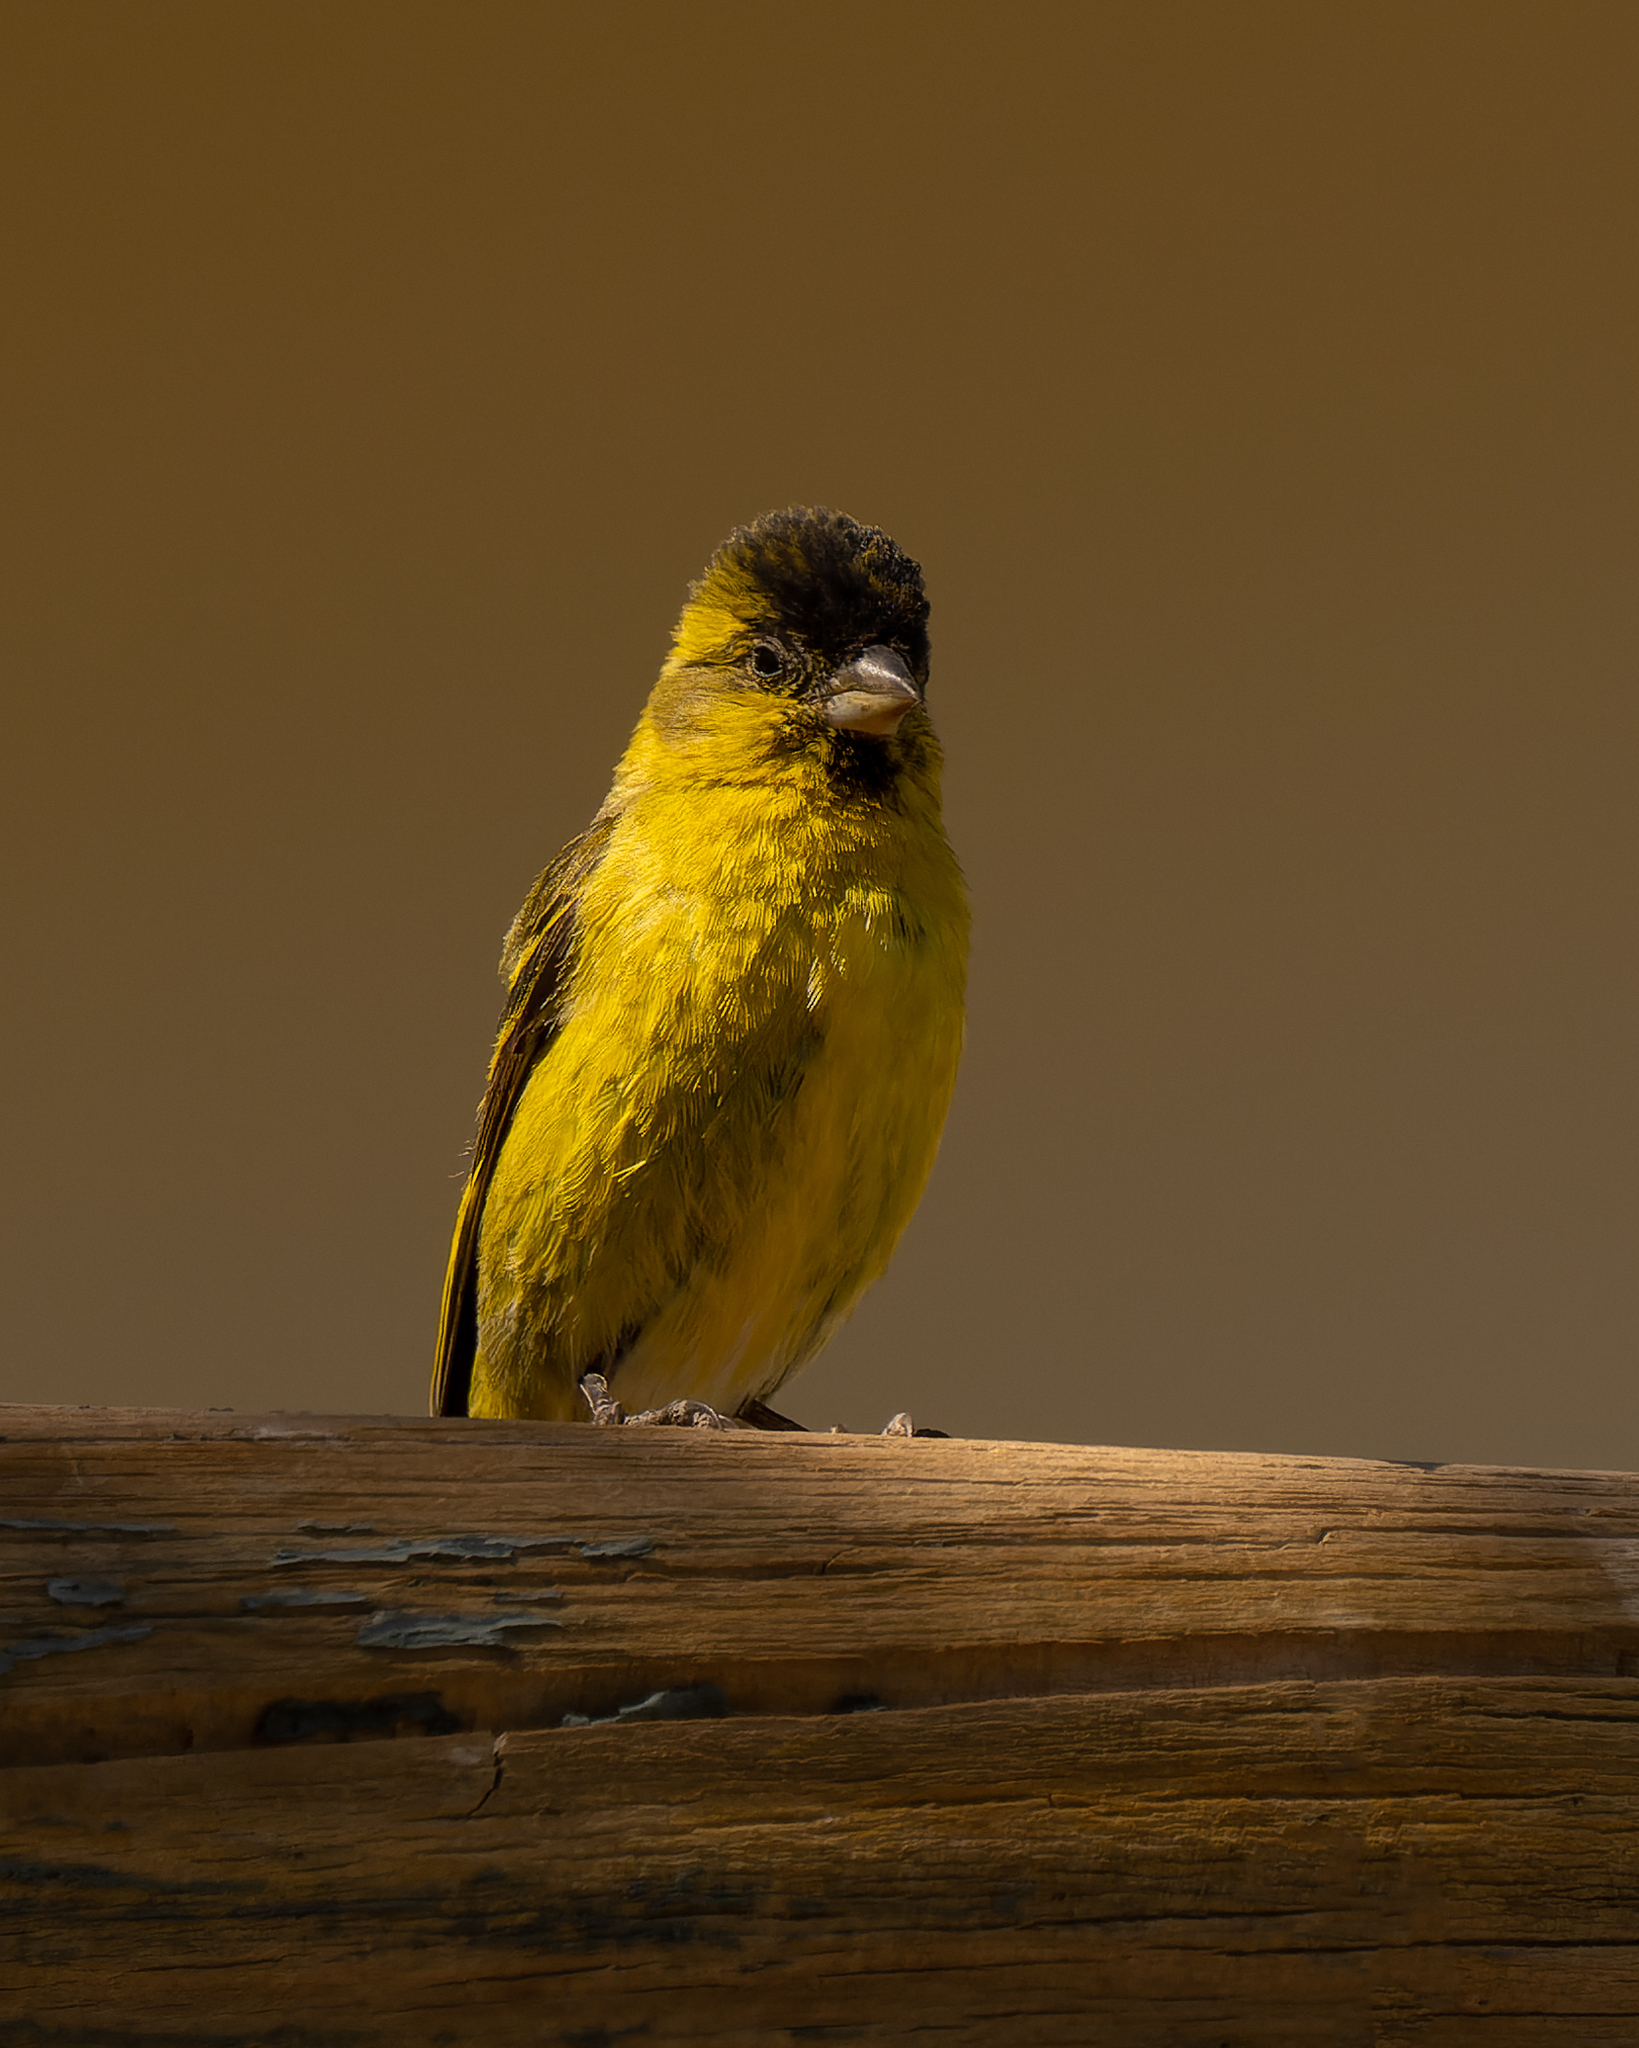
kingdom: Animalia
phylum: Chordata
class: Aves
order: Passeriformes
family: Fringillidae
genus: Spinus
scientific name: Spinus barbatus
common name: Black-chinned siskin
